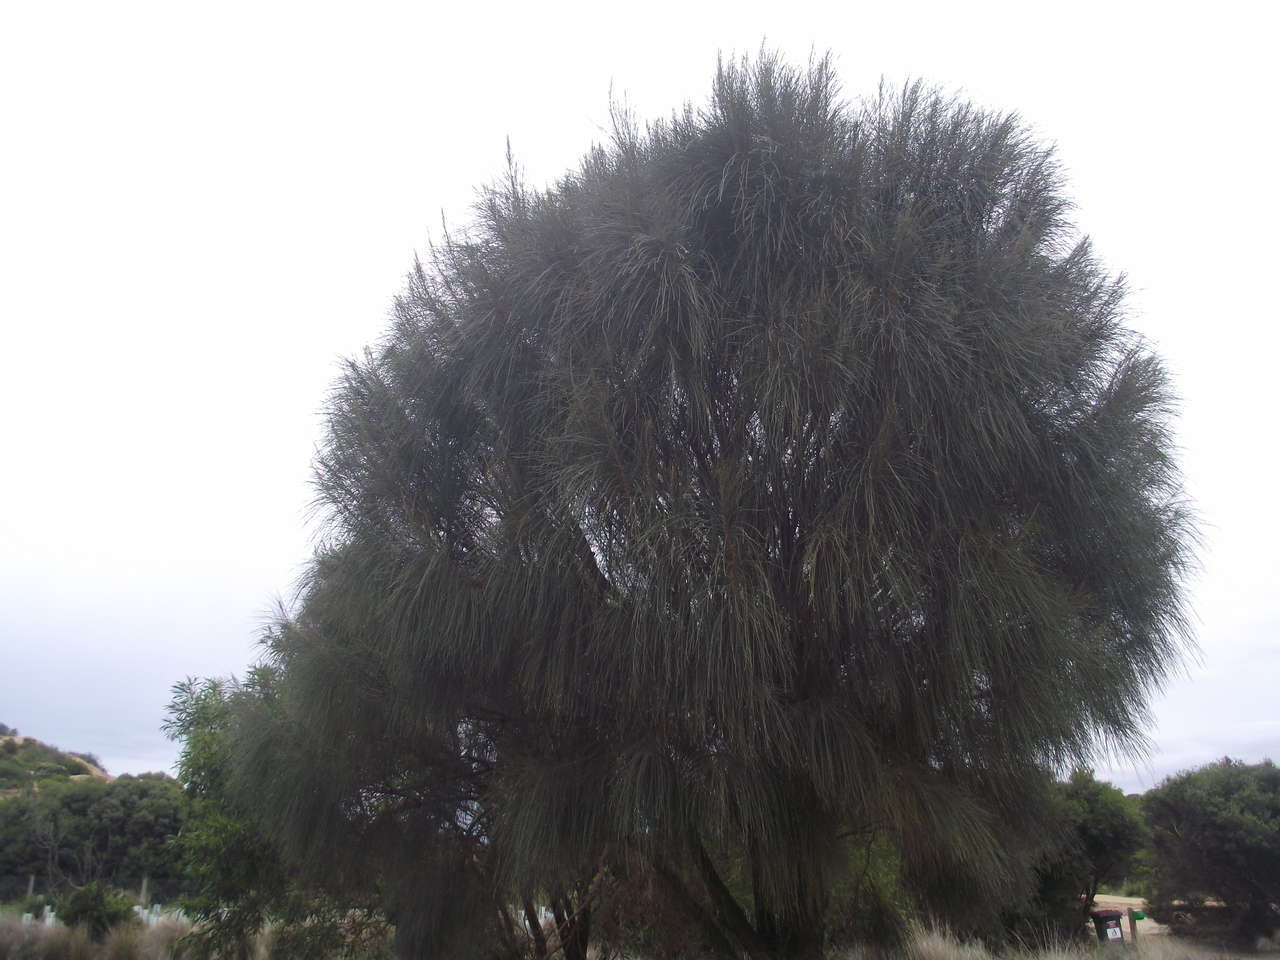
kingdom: Plantae
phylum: Tracheophyta
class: Magnoliopsida
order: Fagales
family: Casuarinaceae
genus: Allocasuarina
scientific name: Allocasuarina verticillata
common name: Drooping she-oak
